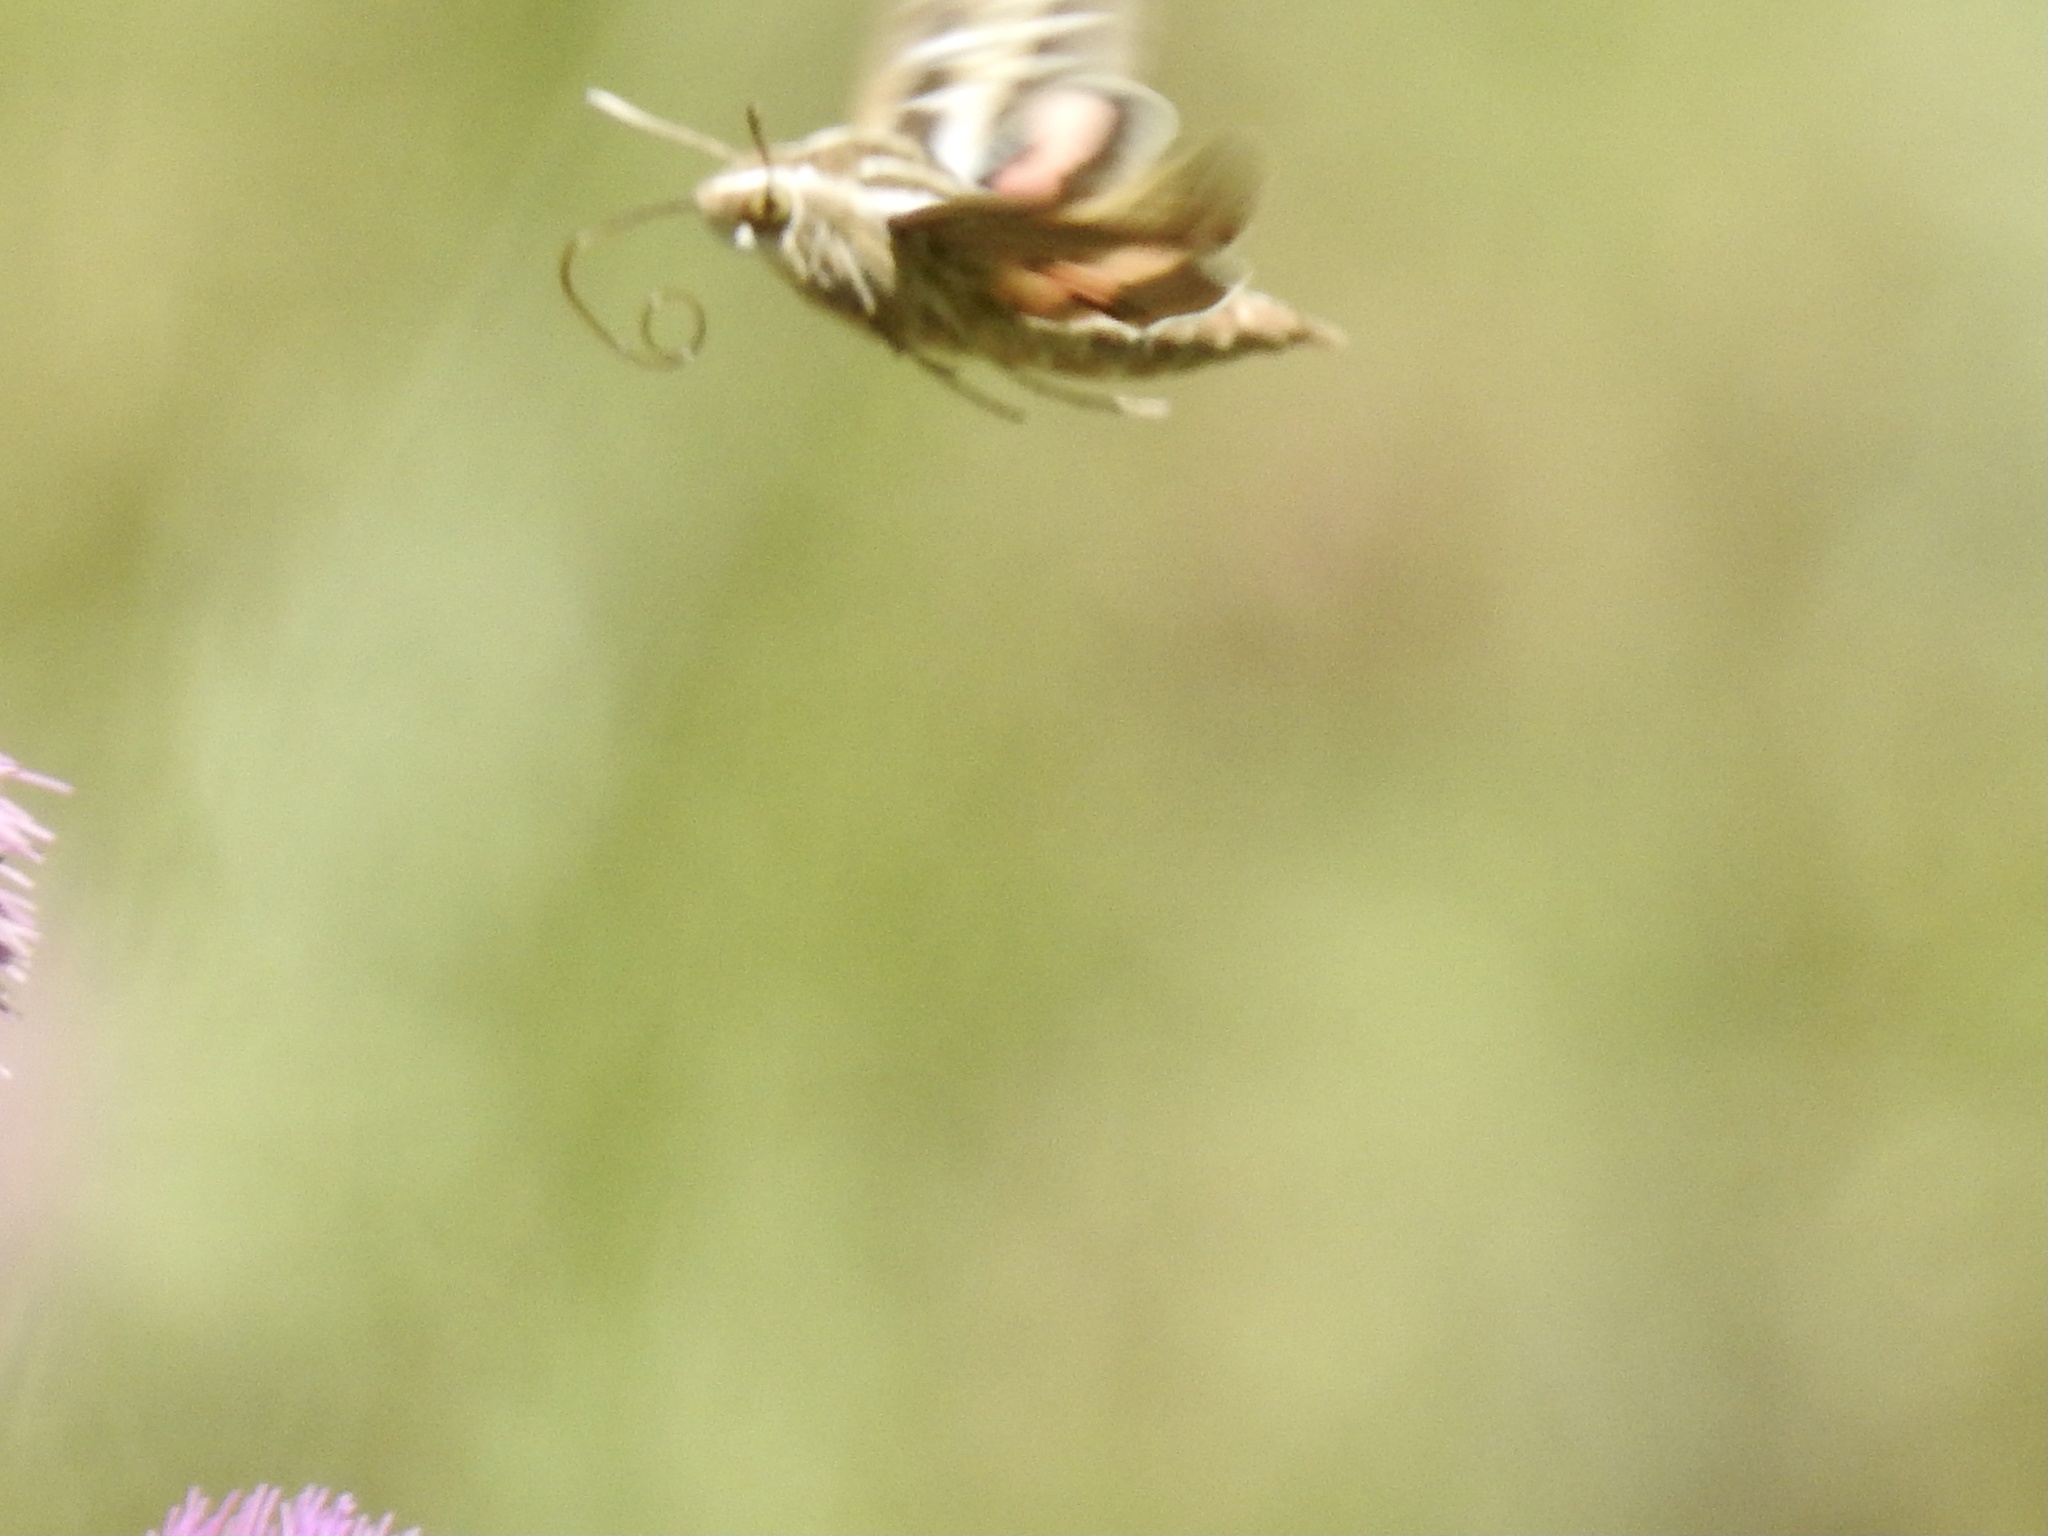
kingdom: Animalia
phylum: Arthropoda
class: Insecta
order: Lepidoptera
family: Sphingidae
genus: Hyles
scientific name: Hyles lineata
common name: White-lined sphinx
